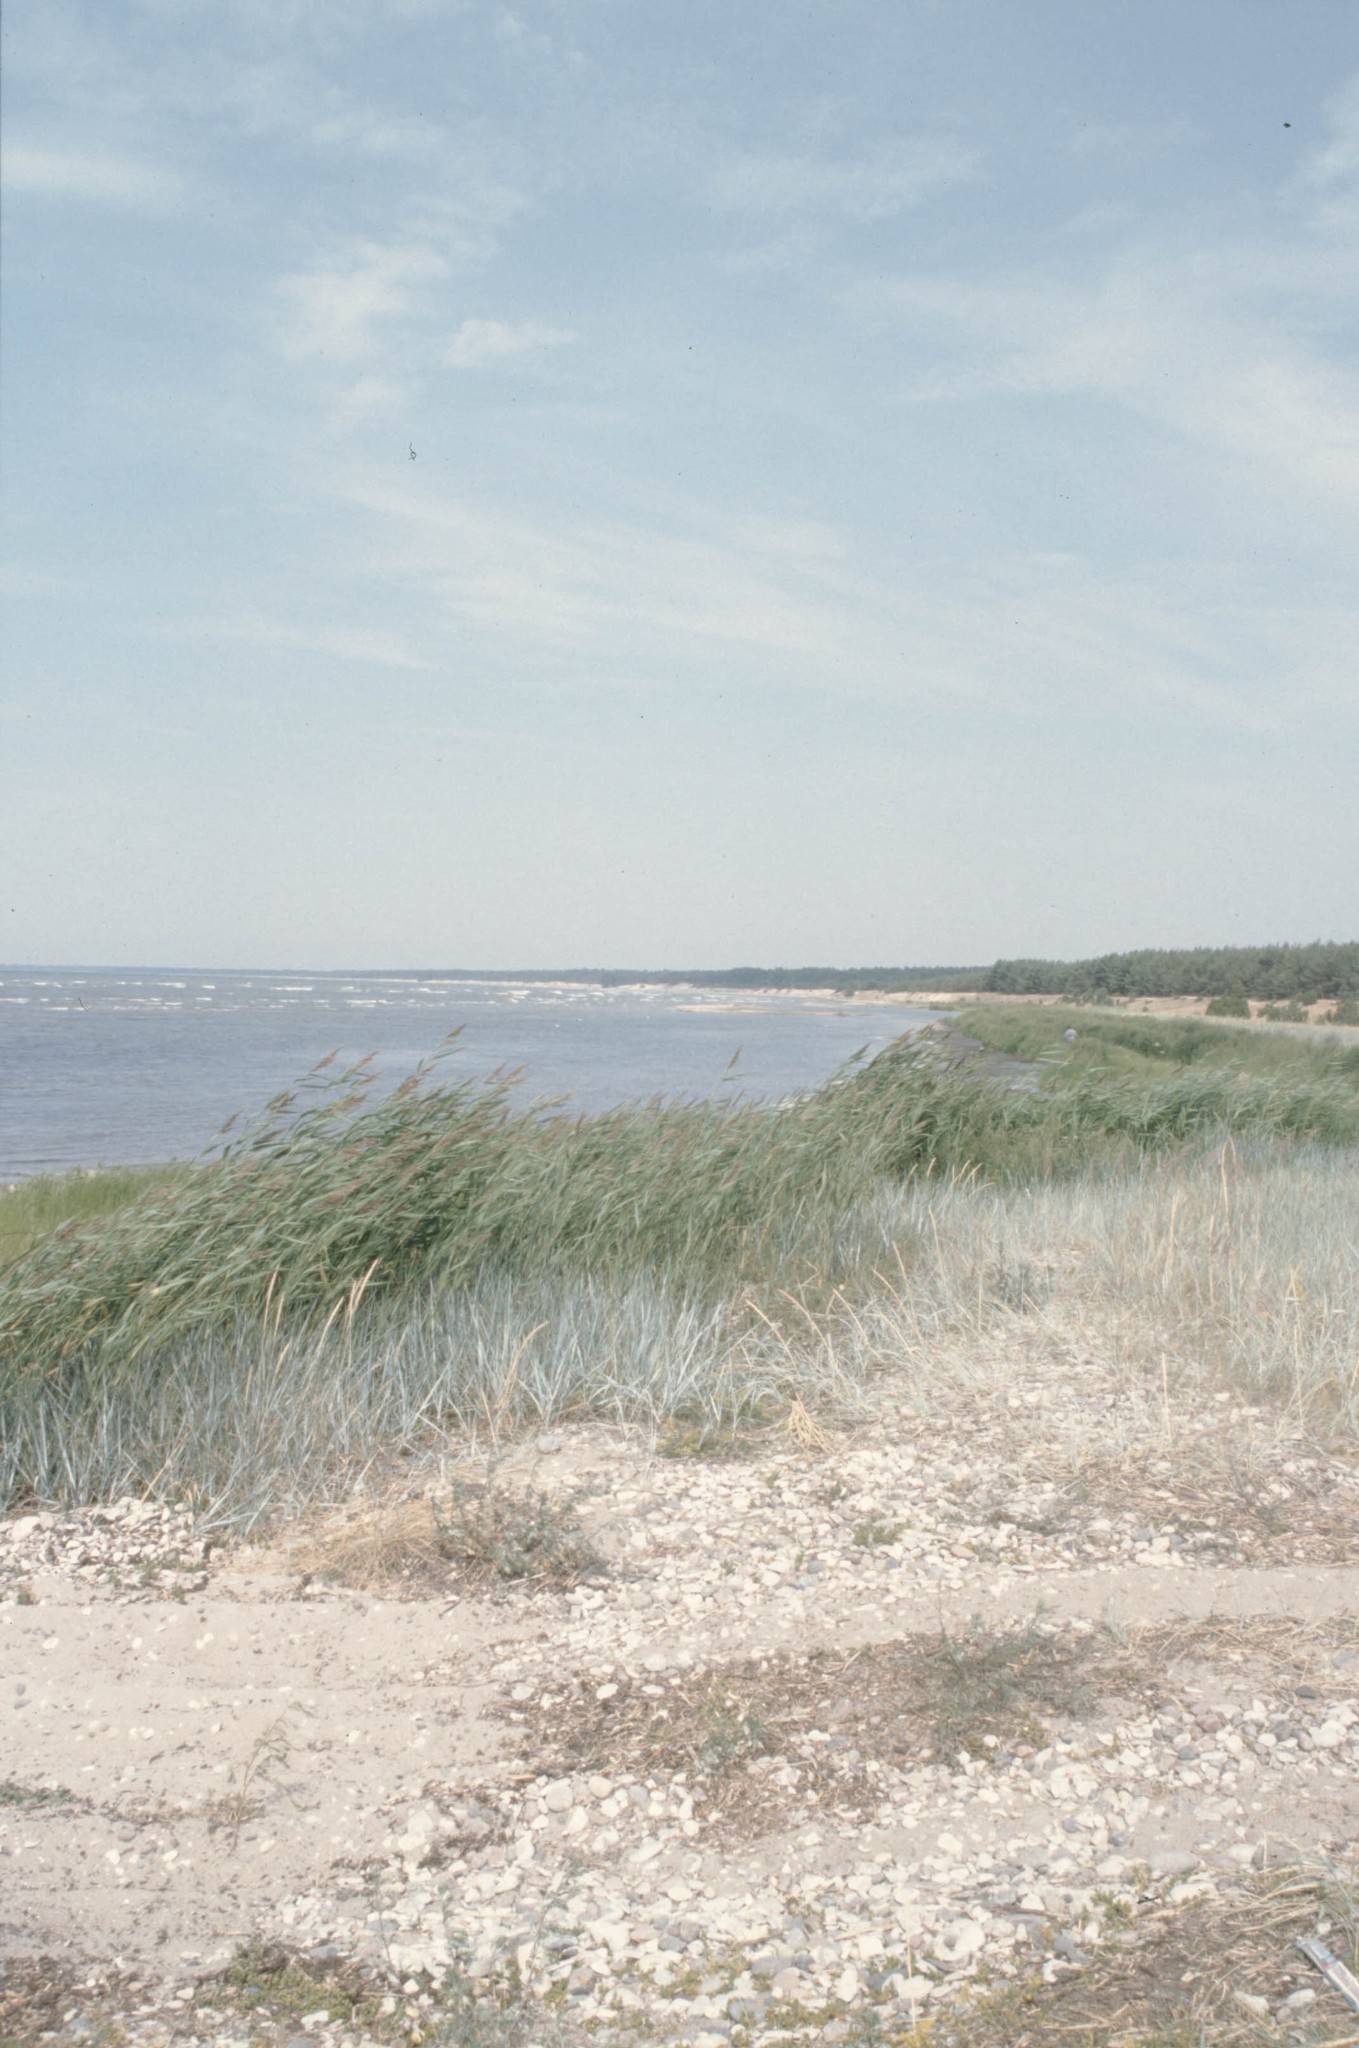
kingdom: Plantae
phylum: Tracheophyta
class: Liliopsida
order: Poales
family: Poaceae
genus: Phragmites
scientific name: Phragmites australis
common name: Common reed
